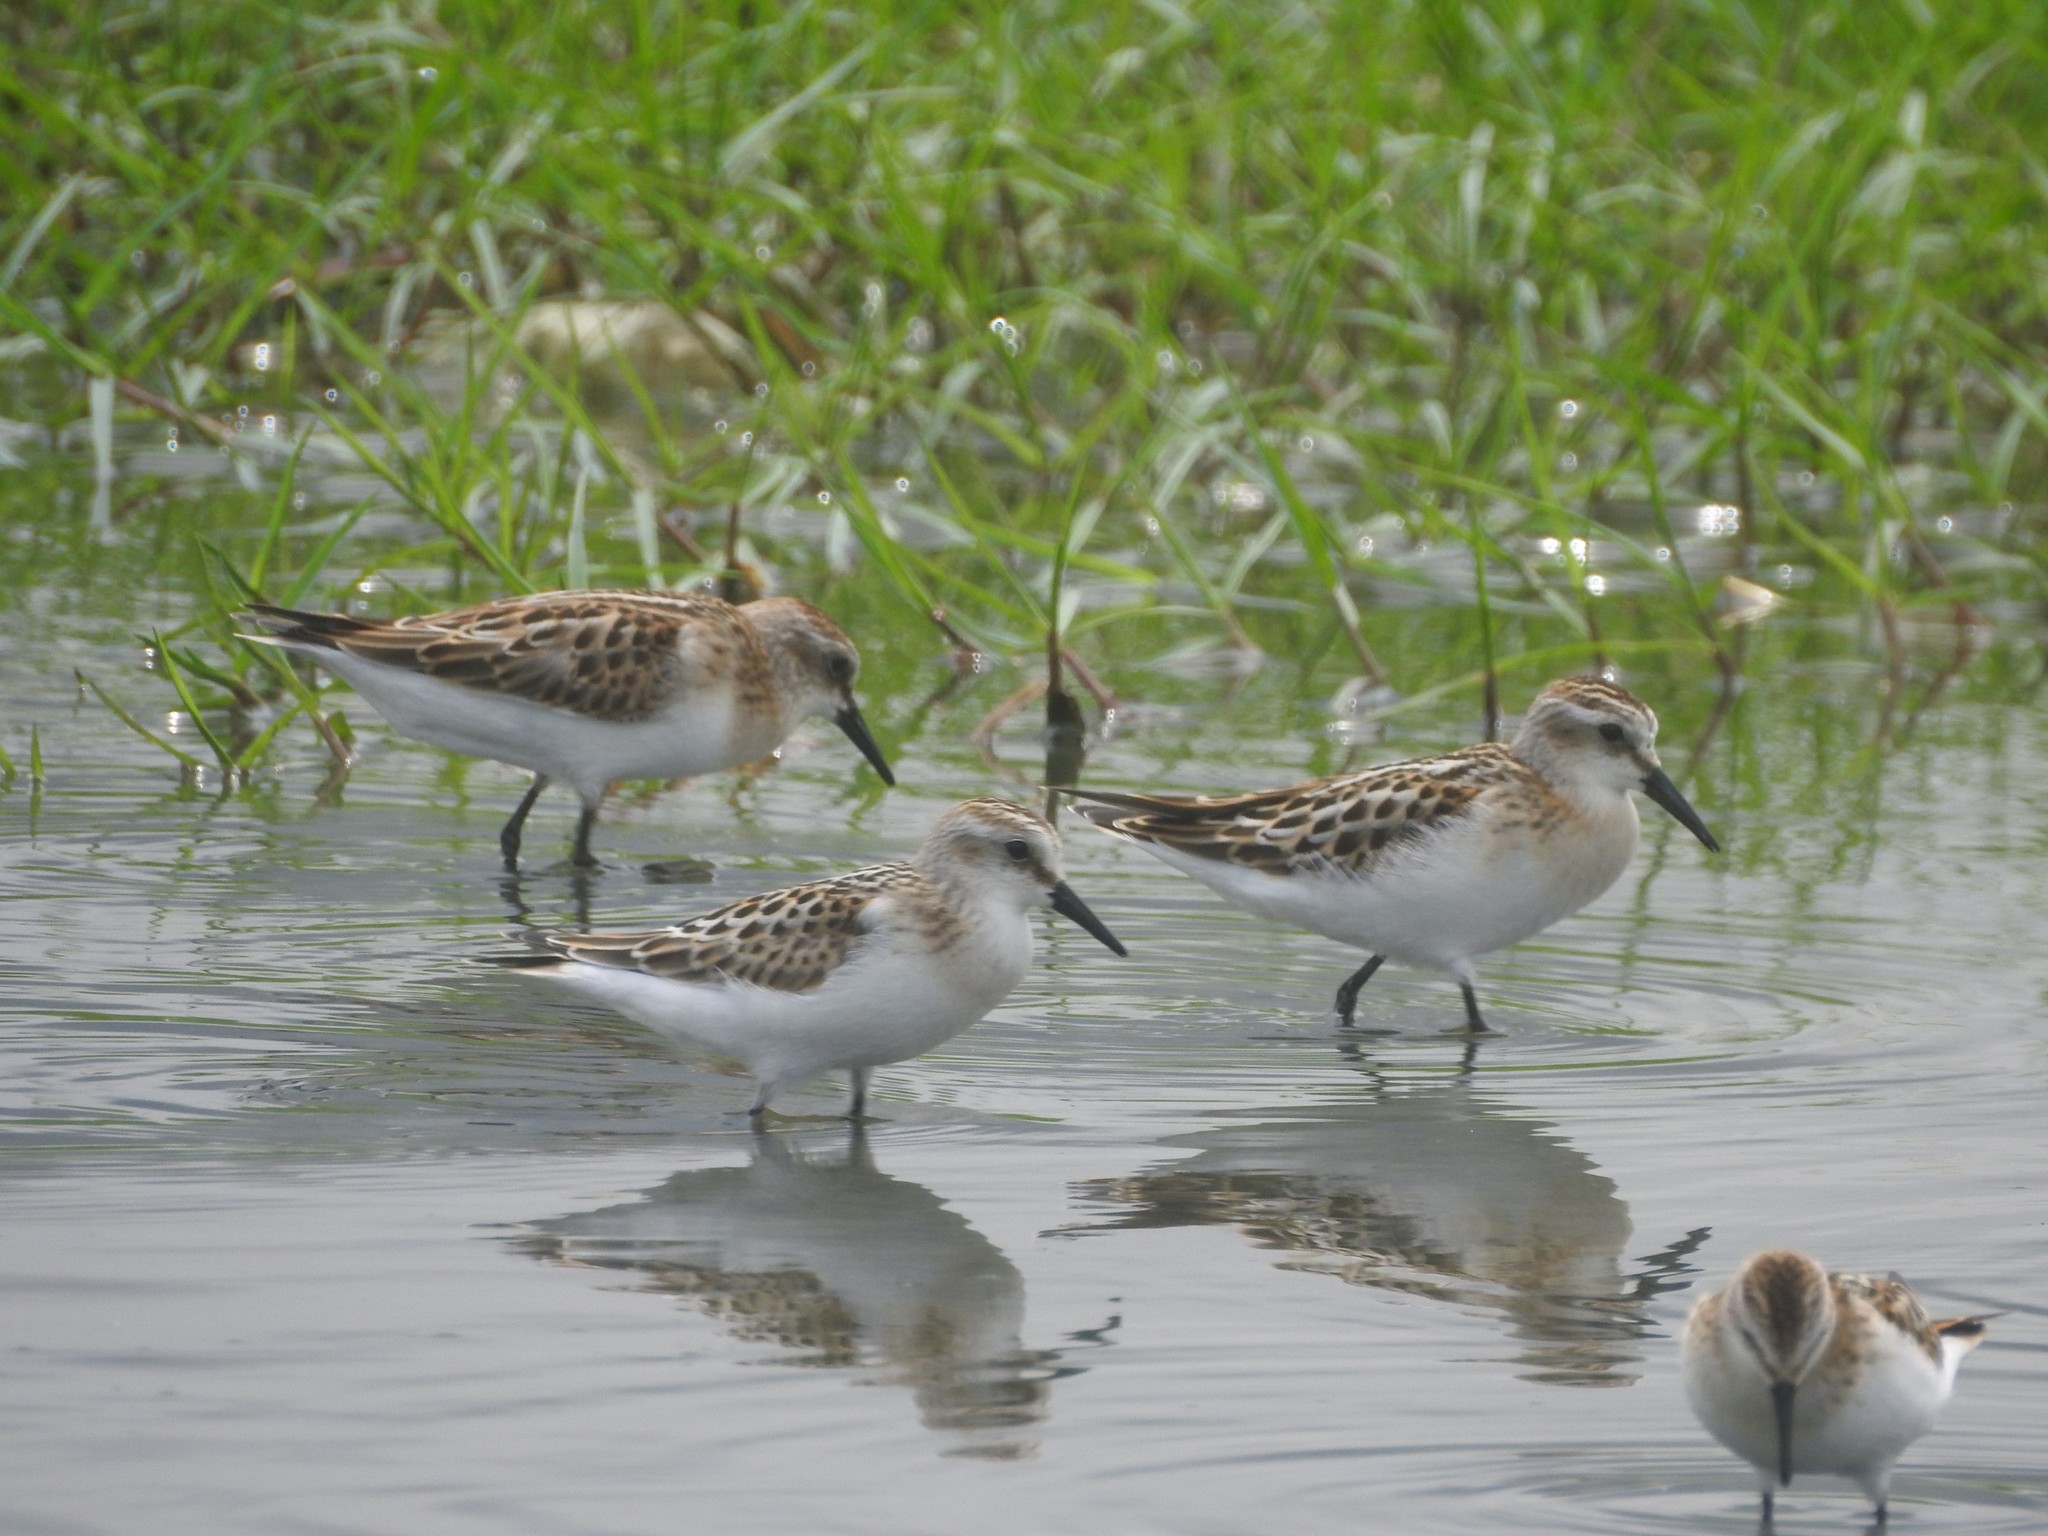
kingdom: Animalia
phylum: Chordata
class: Aves
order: Charadriiformes
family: Scolopacidae
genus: Calidris
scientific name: Calidris minuta
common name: Little stint
